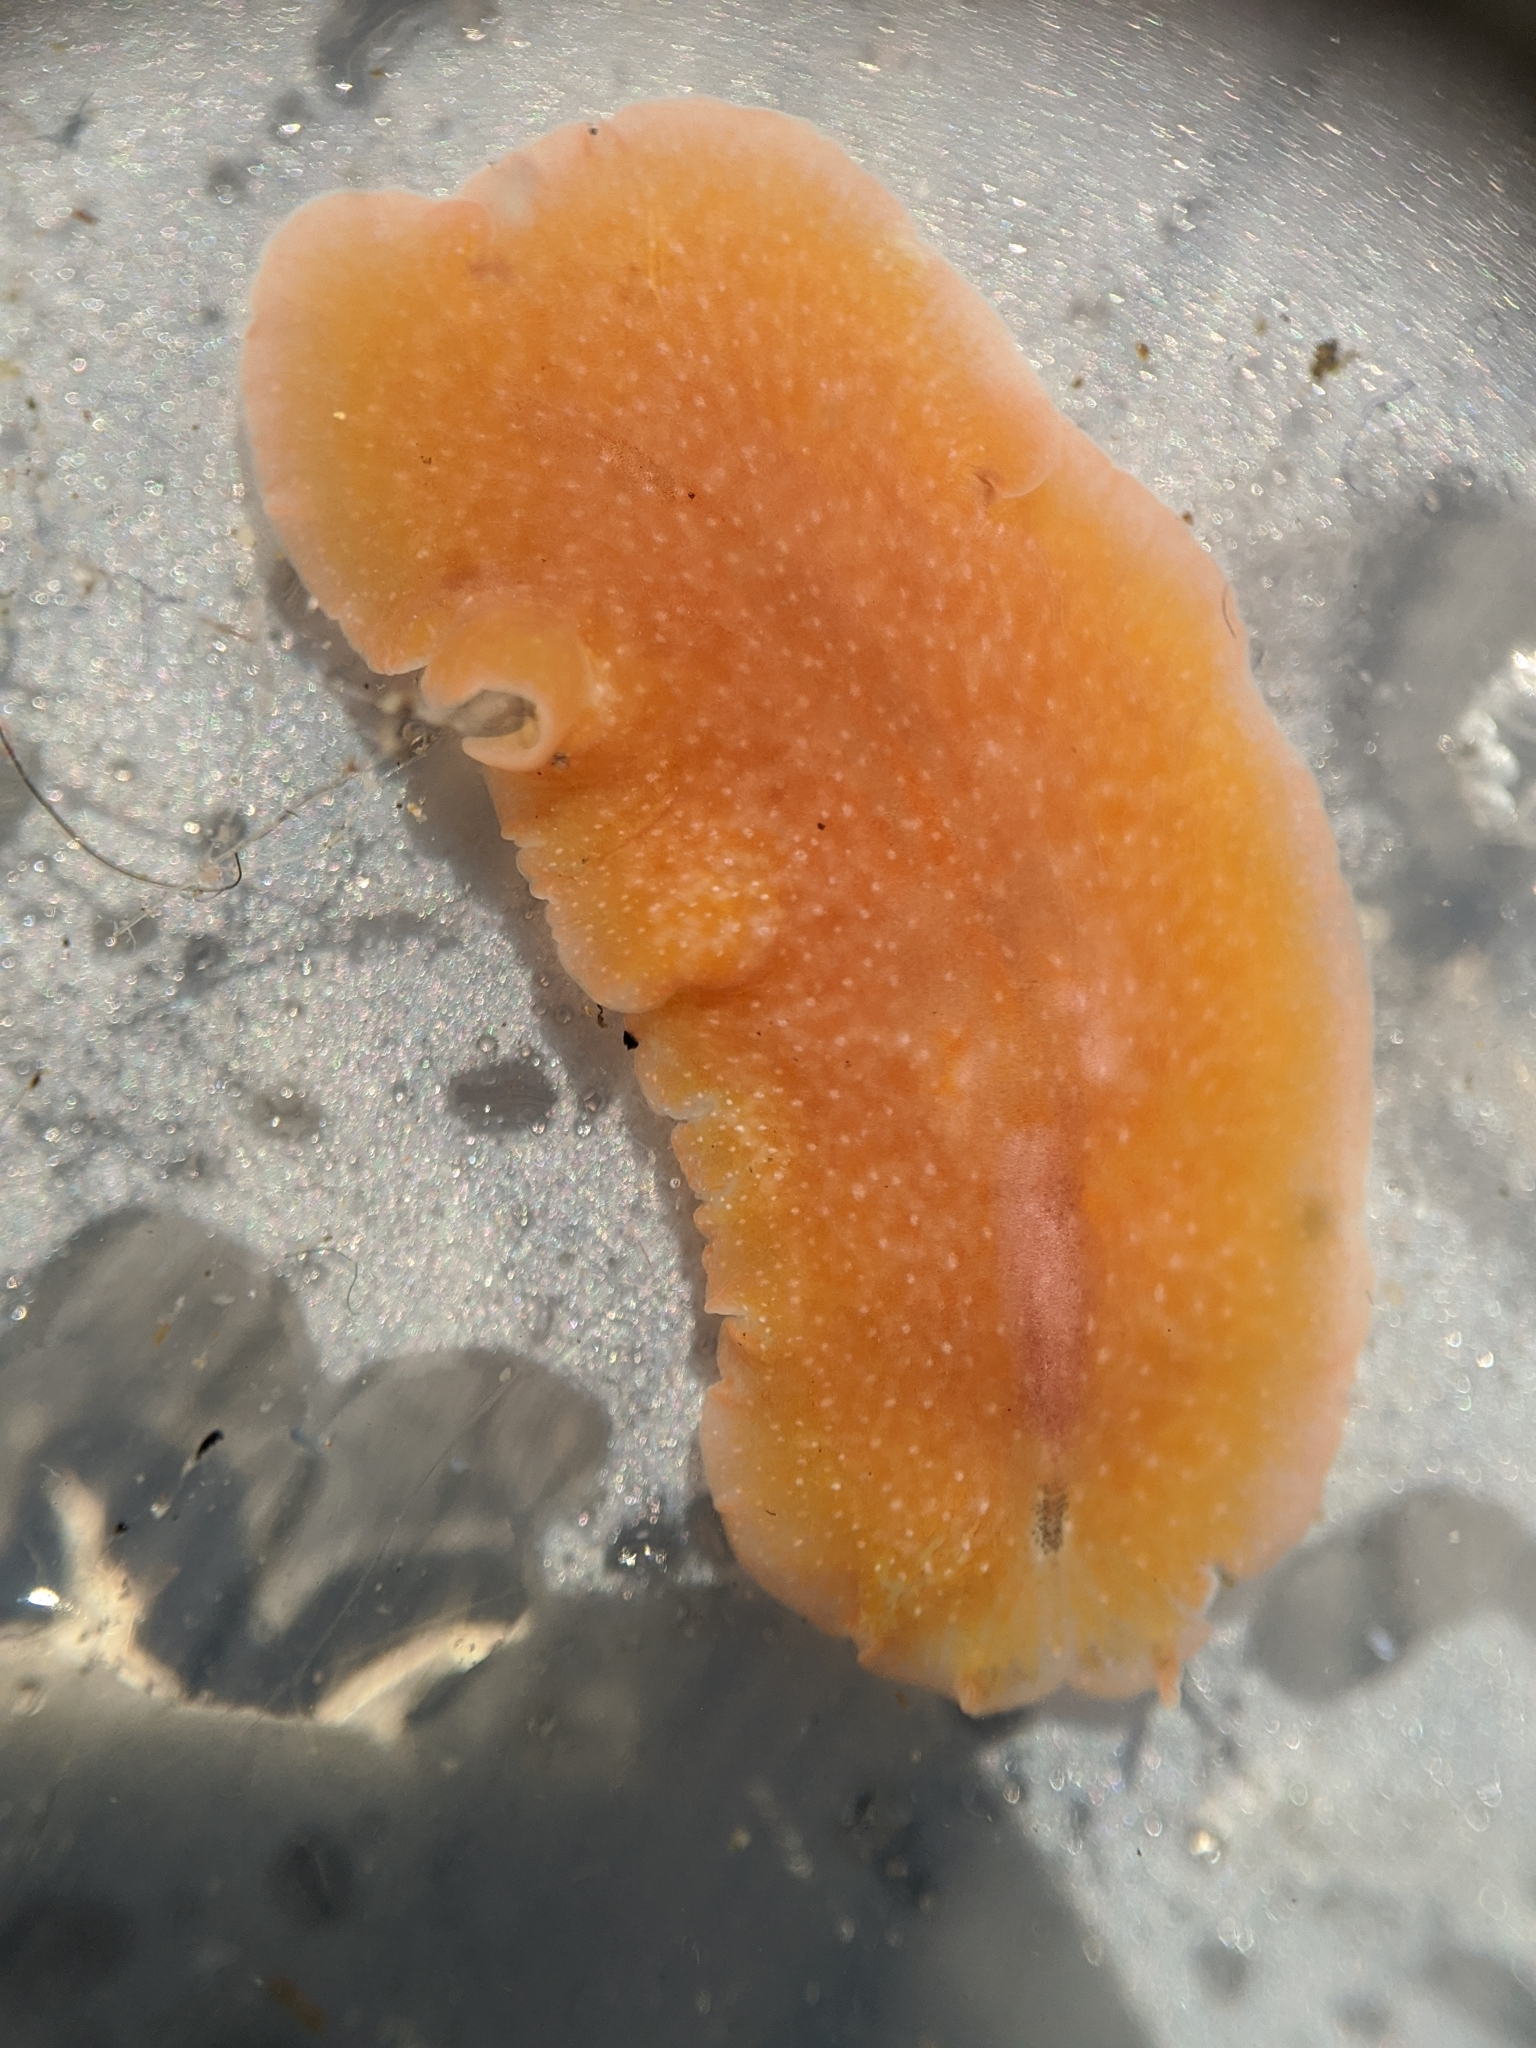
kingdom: Animalia
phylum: Platyhelminthes
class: Turbellaria
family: Euryleptidae
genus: Eurylepta
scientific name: Eurylepta aurantiaca
